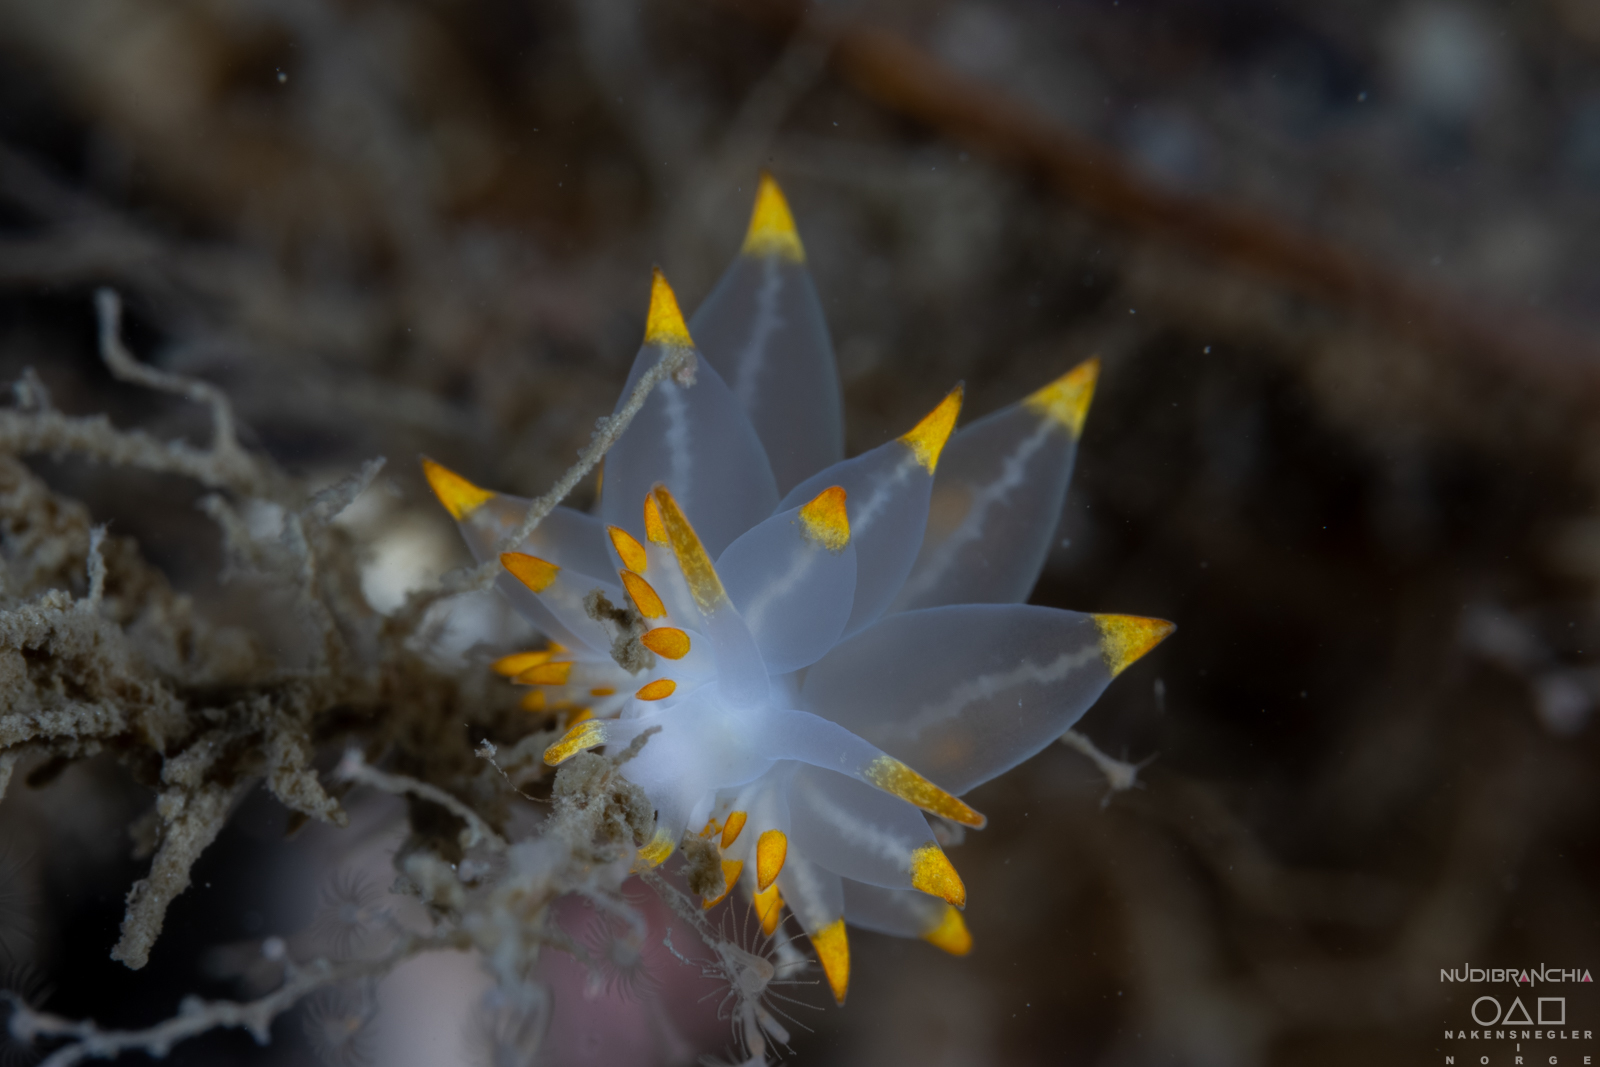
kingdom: Animalia
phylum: Mollusca
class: Gastropoda
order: Nudibranchia
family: Eubranchidae
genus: Amphorina
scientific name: Amphorina farrani
